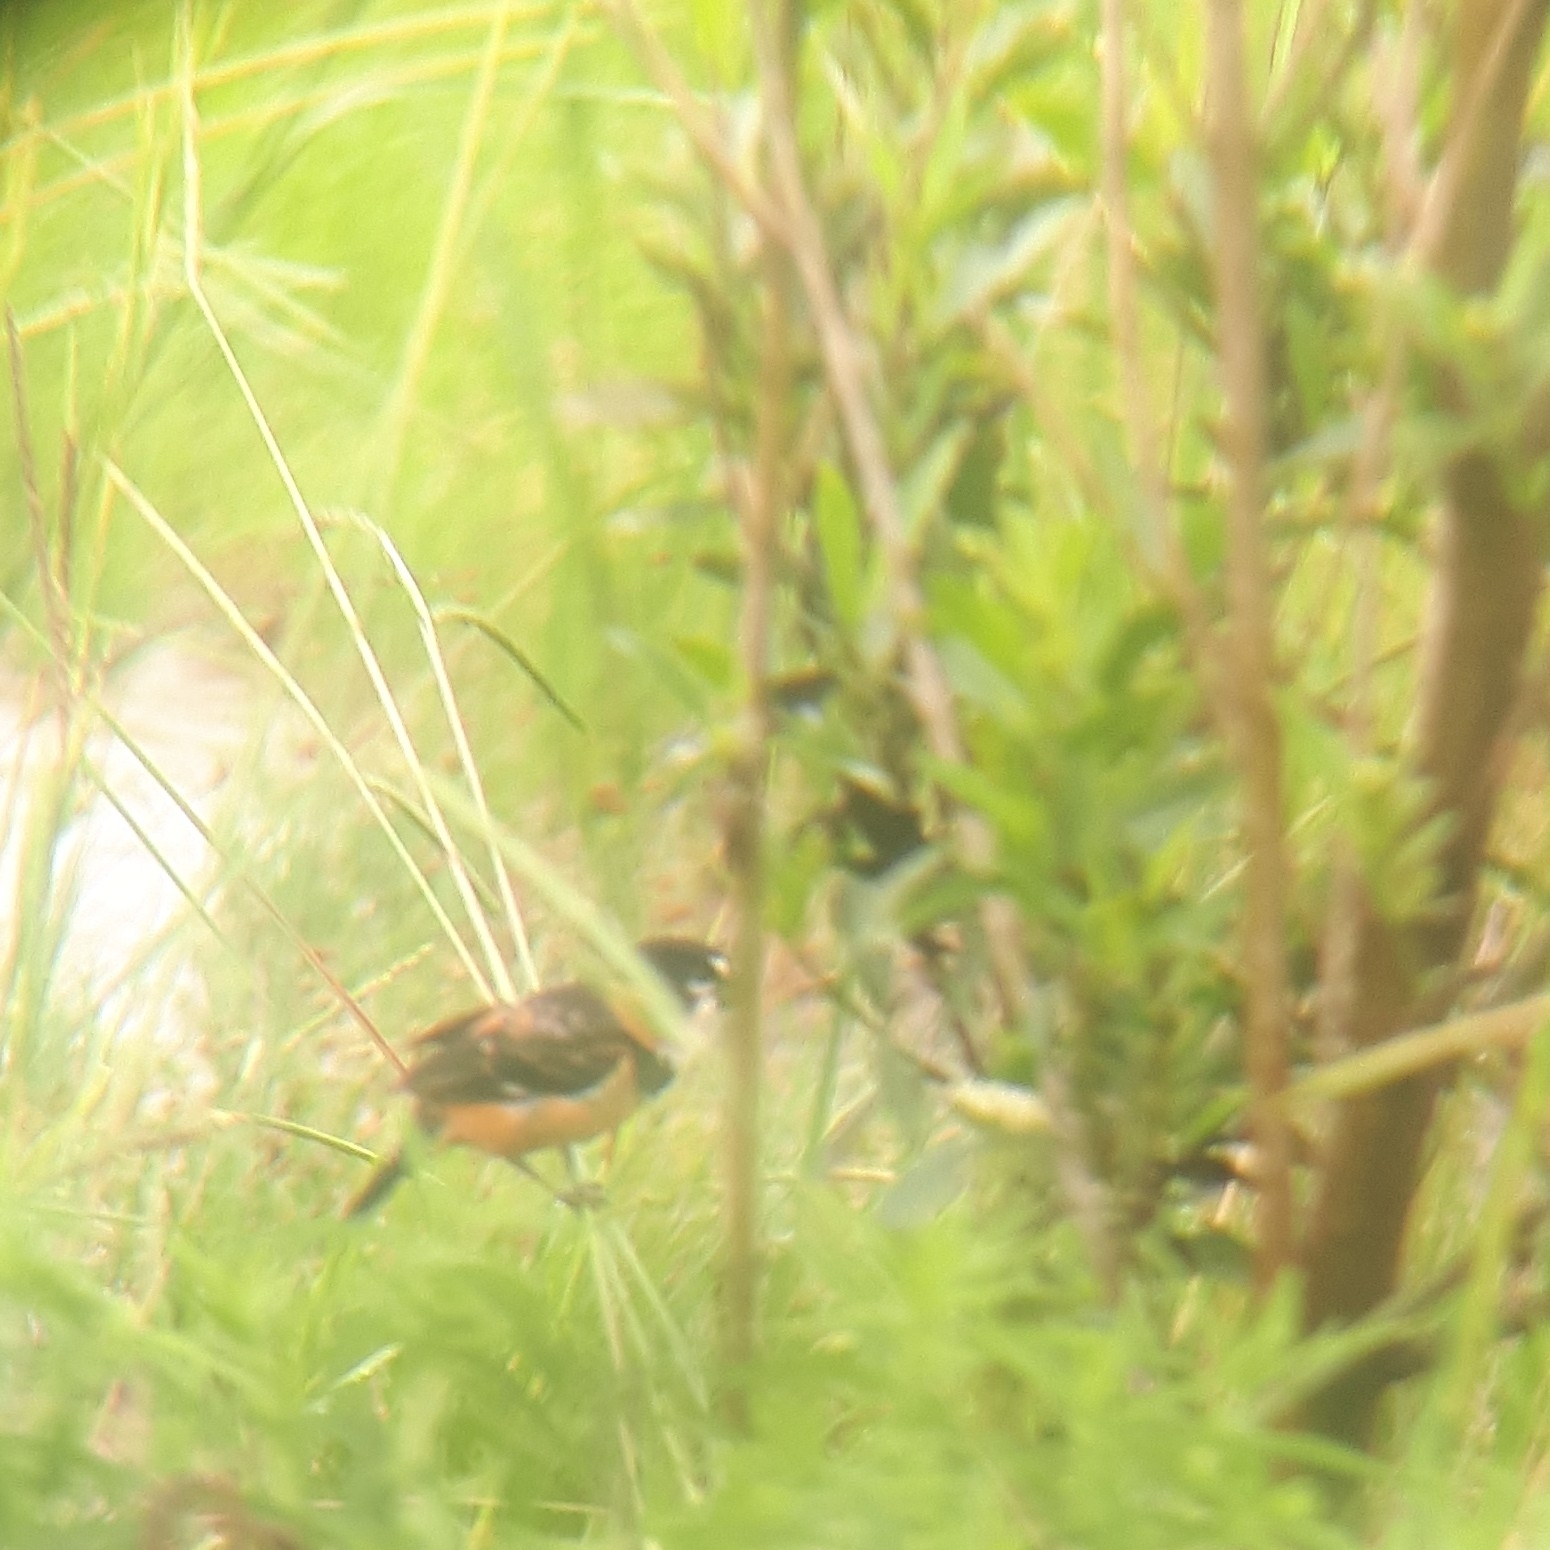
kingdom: Animalia
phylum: Chordata
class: Aves
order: Passeriformes
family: Thraupidae
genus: Sporophila
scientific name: Sporophila collaris
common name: Rusty-collared seedeater
